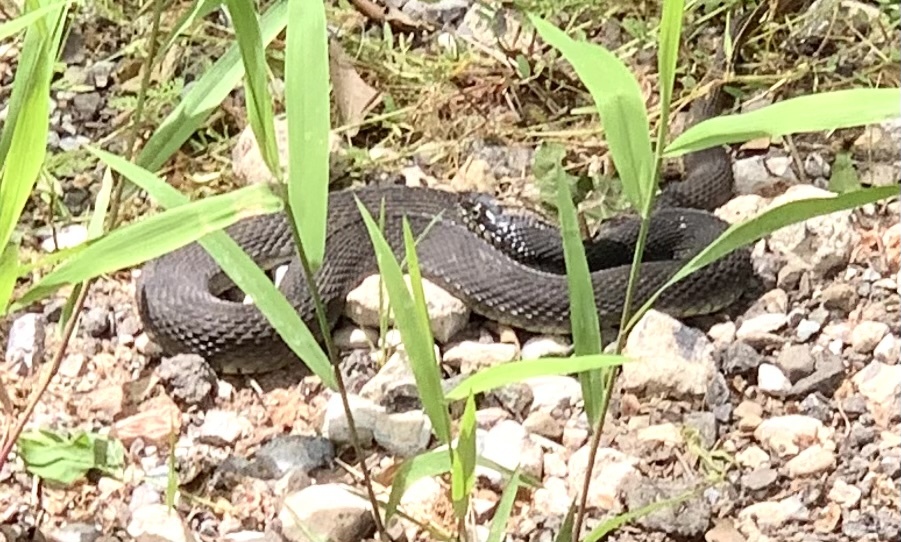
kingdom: Animalia
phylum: Chordata
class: Squamata
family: Colubridae
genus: Nerodia
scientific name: Nerodia erythrogaster
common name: Plainbelly water snake
